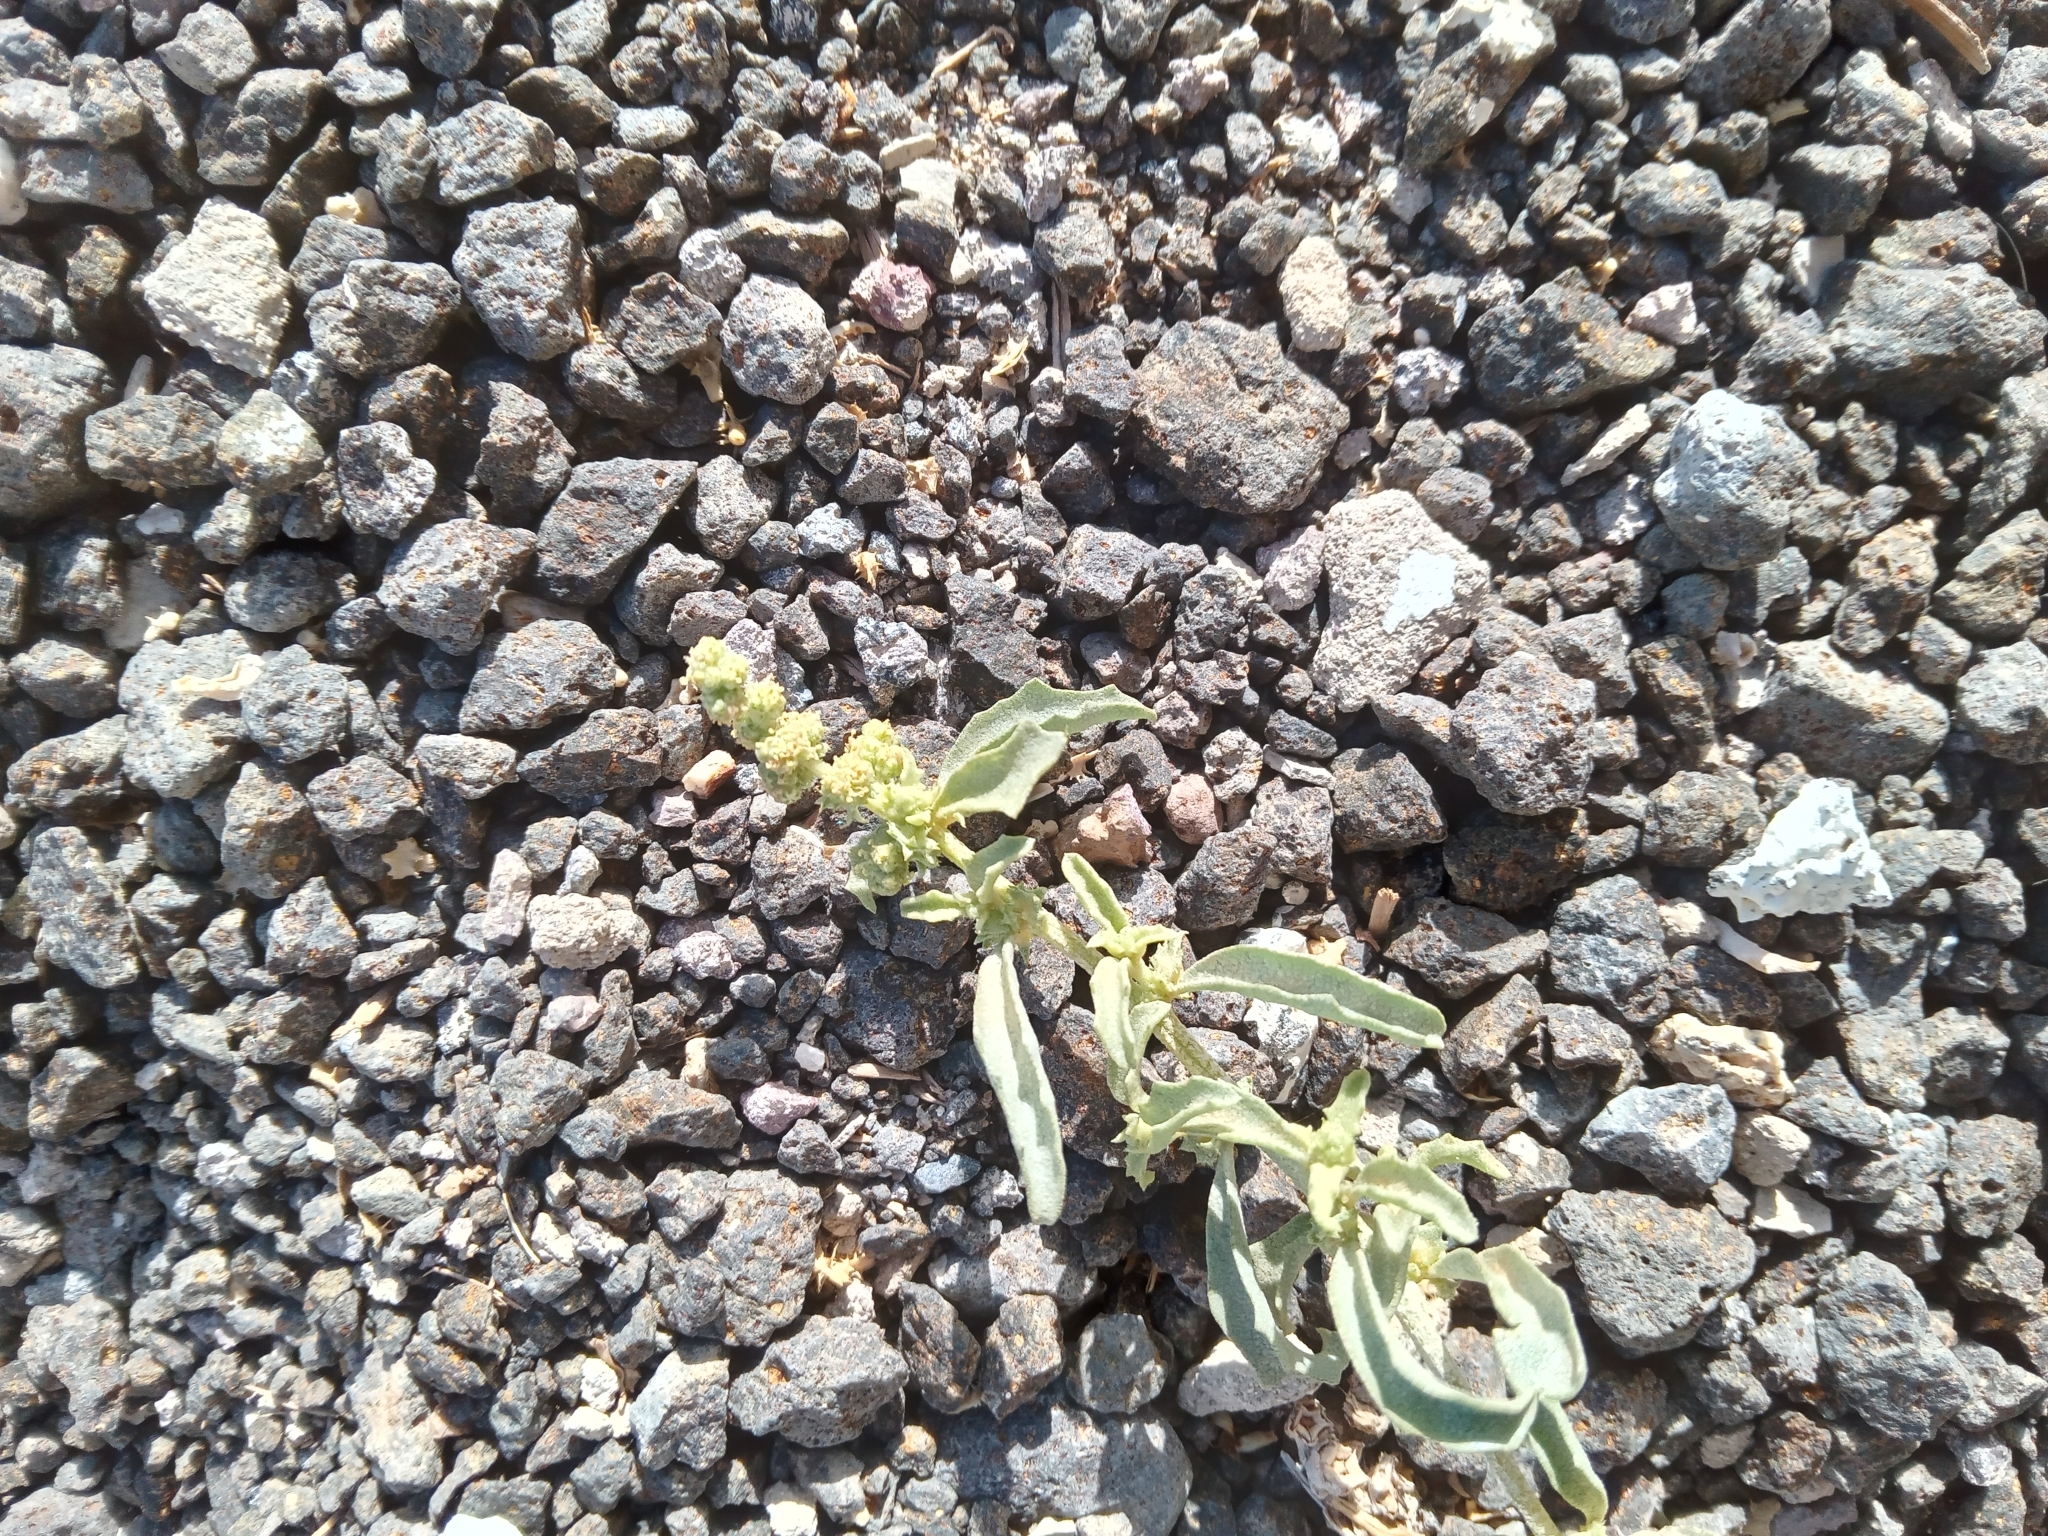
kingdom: Plantae
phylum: Tracheophyta
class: Magnoliopsida
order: Caryophyllales
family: Amaranthaceae
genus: Atriplex
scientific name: Atriplex suberecta
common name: Australian orache
